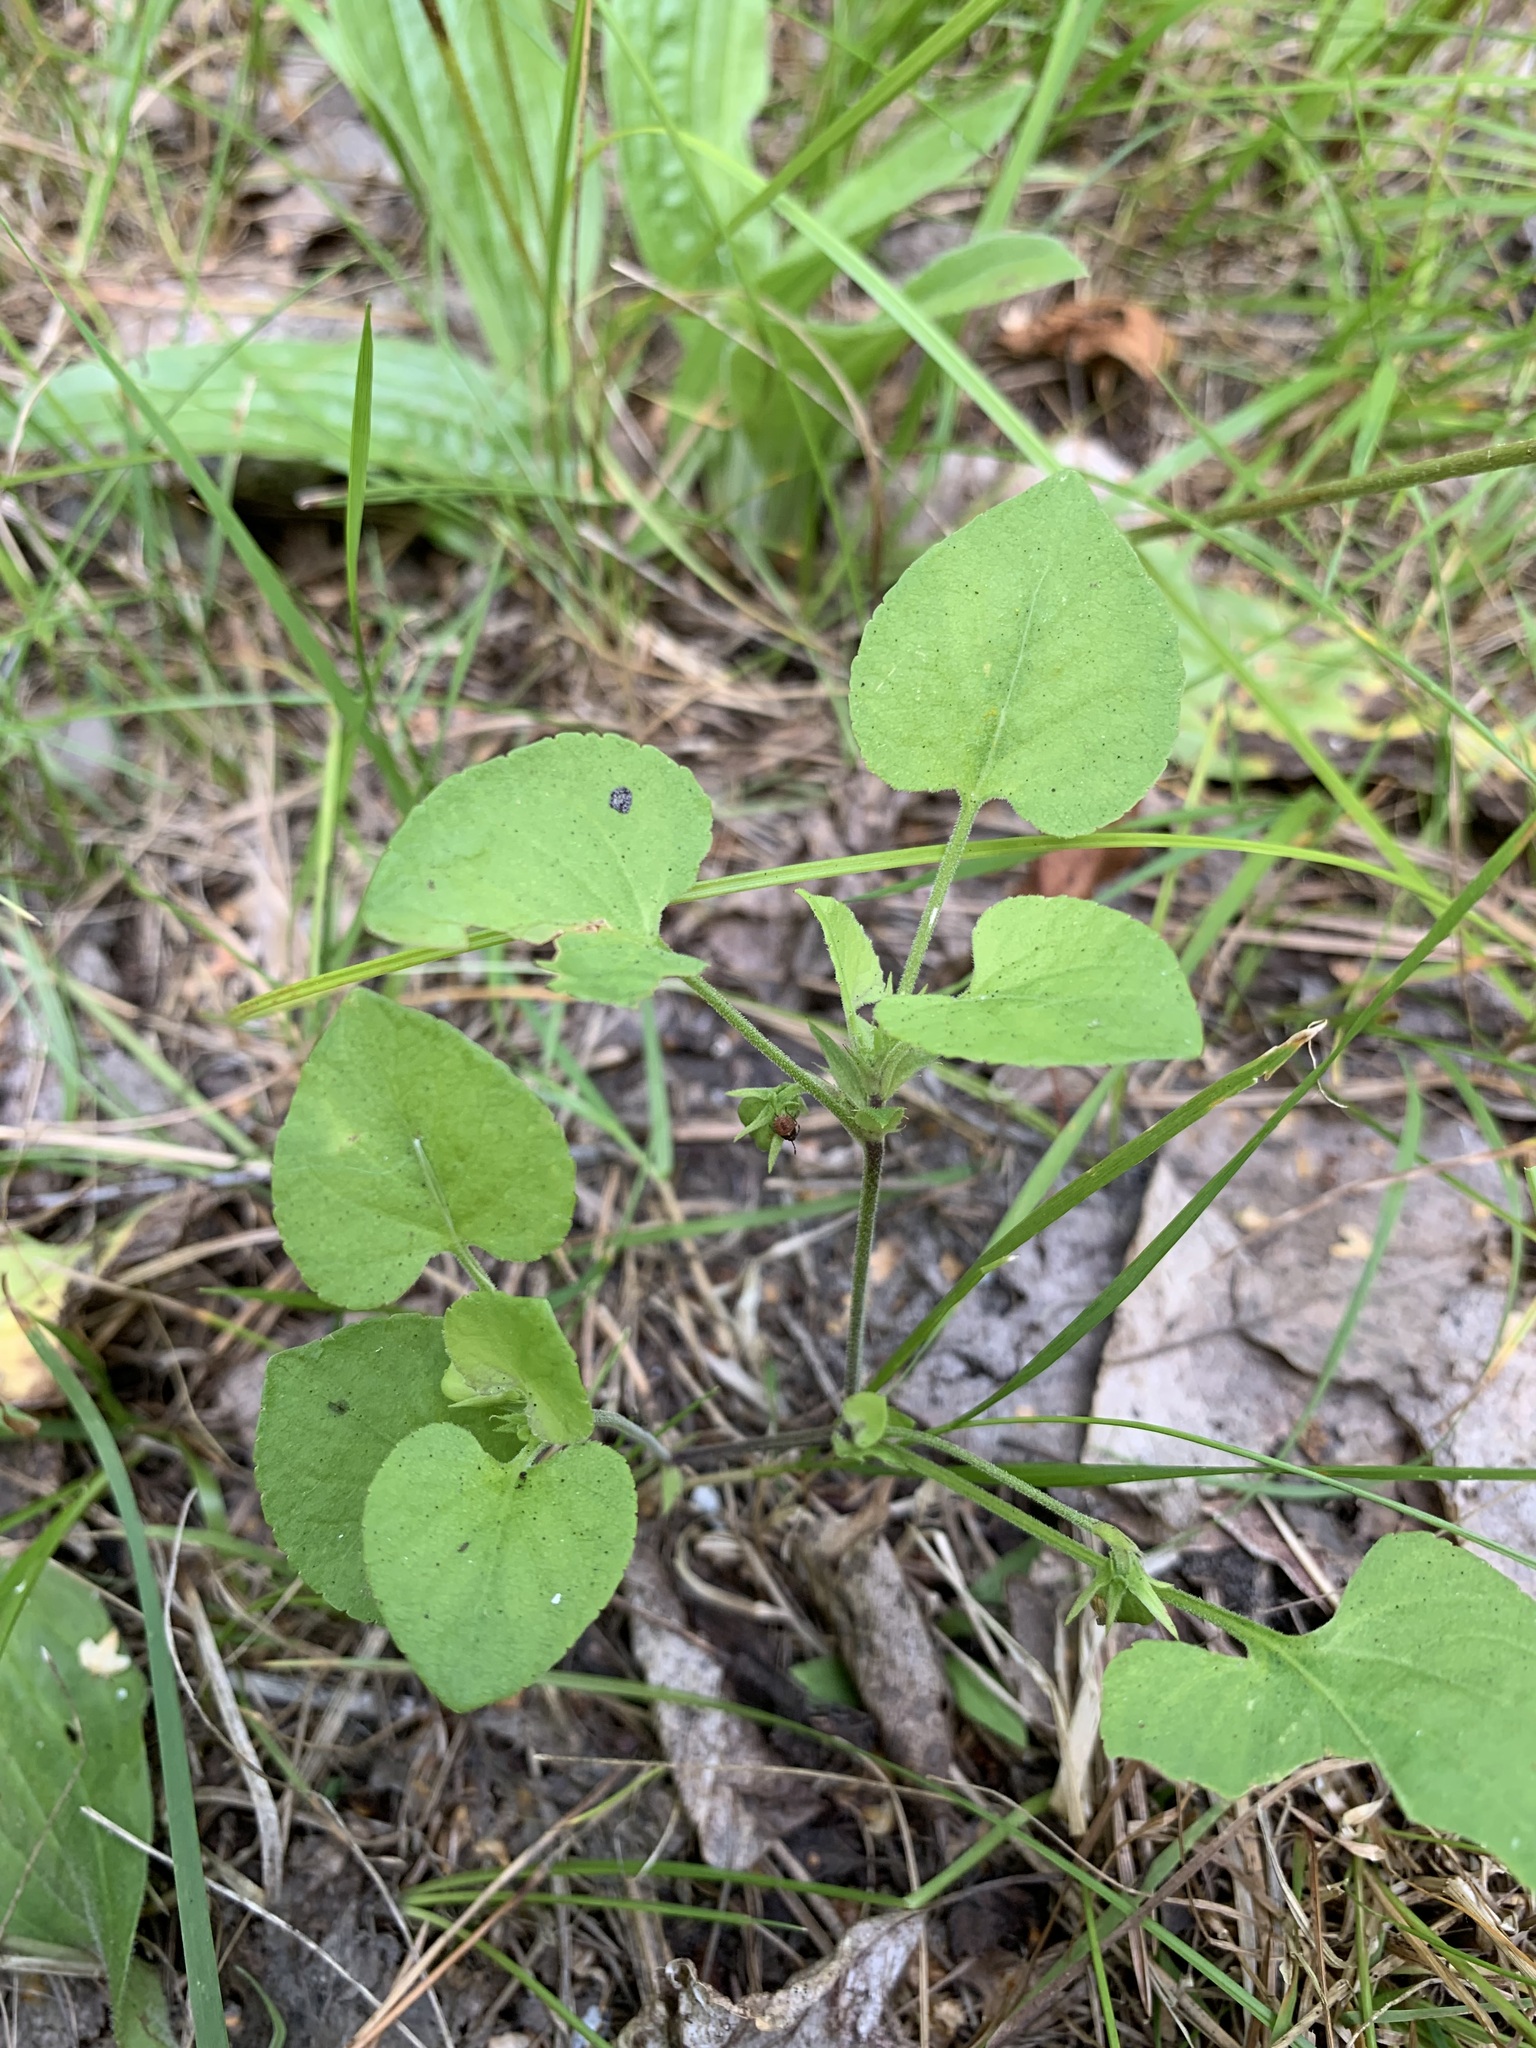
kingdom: Plantae
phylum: Tracheophyta
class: Magnoliopsida
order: Malpighiales
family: Violaceae
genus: Viola
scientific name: Viola rupestris
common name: Teesdale violet
